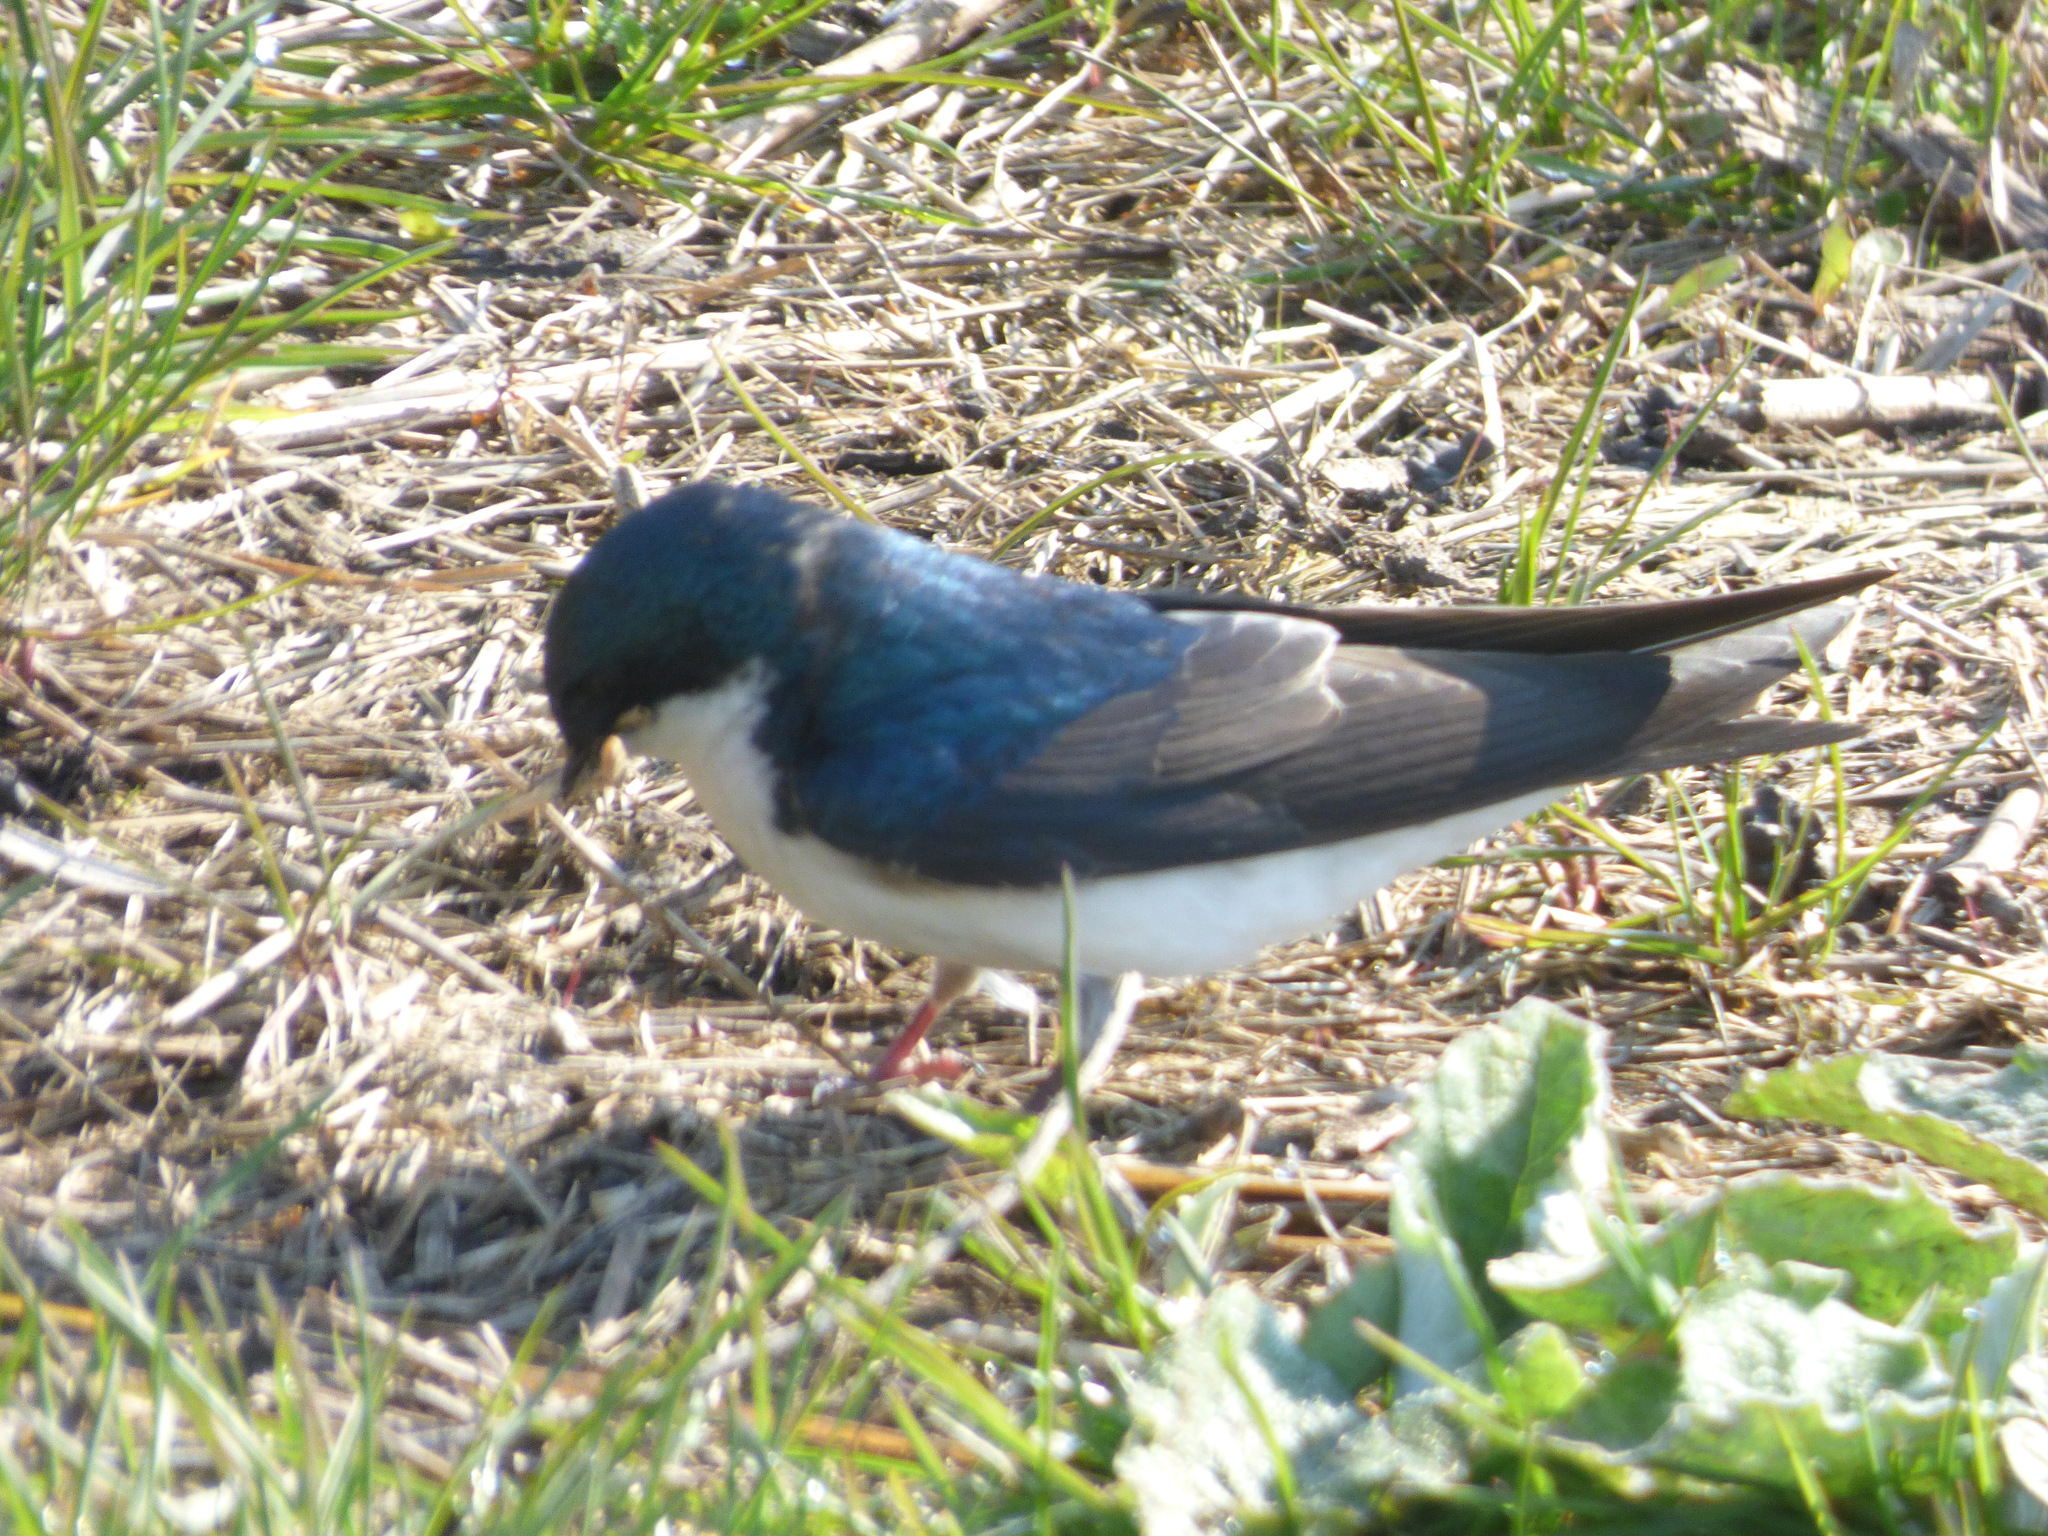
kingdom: Animalia
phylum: Chordata
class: Aves
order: Passeriformes
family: Hirundinidae
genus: Tachycineta
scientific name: Tachycineta bicolor
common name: Tree swallow
